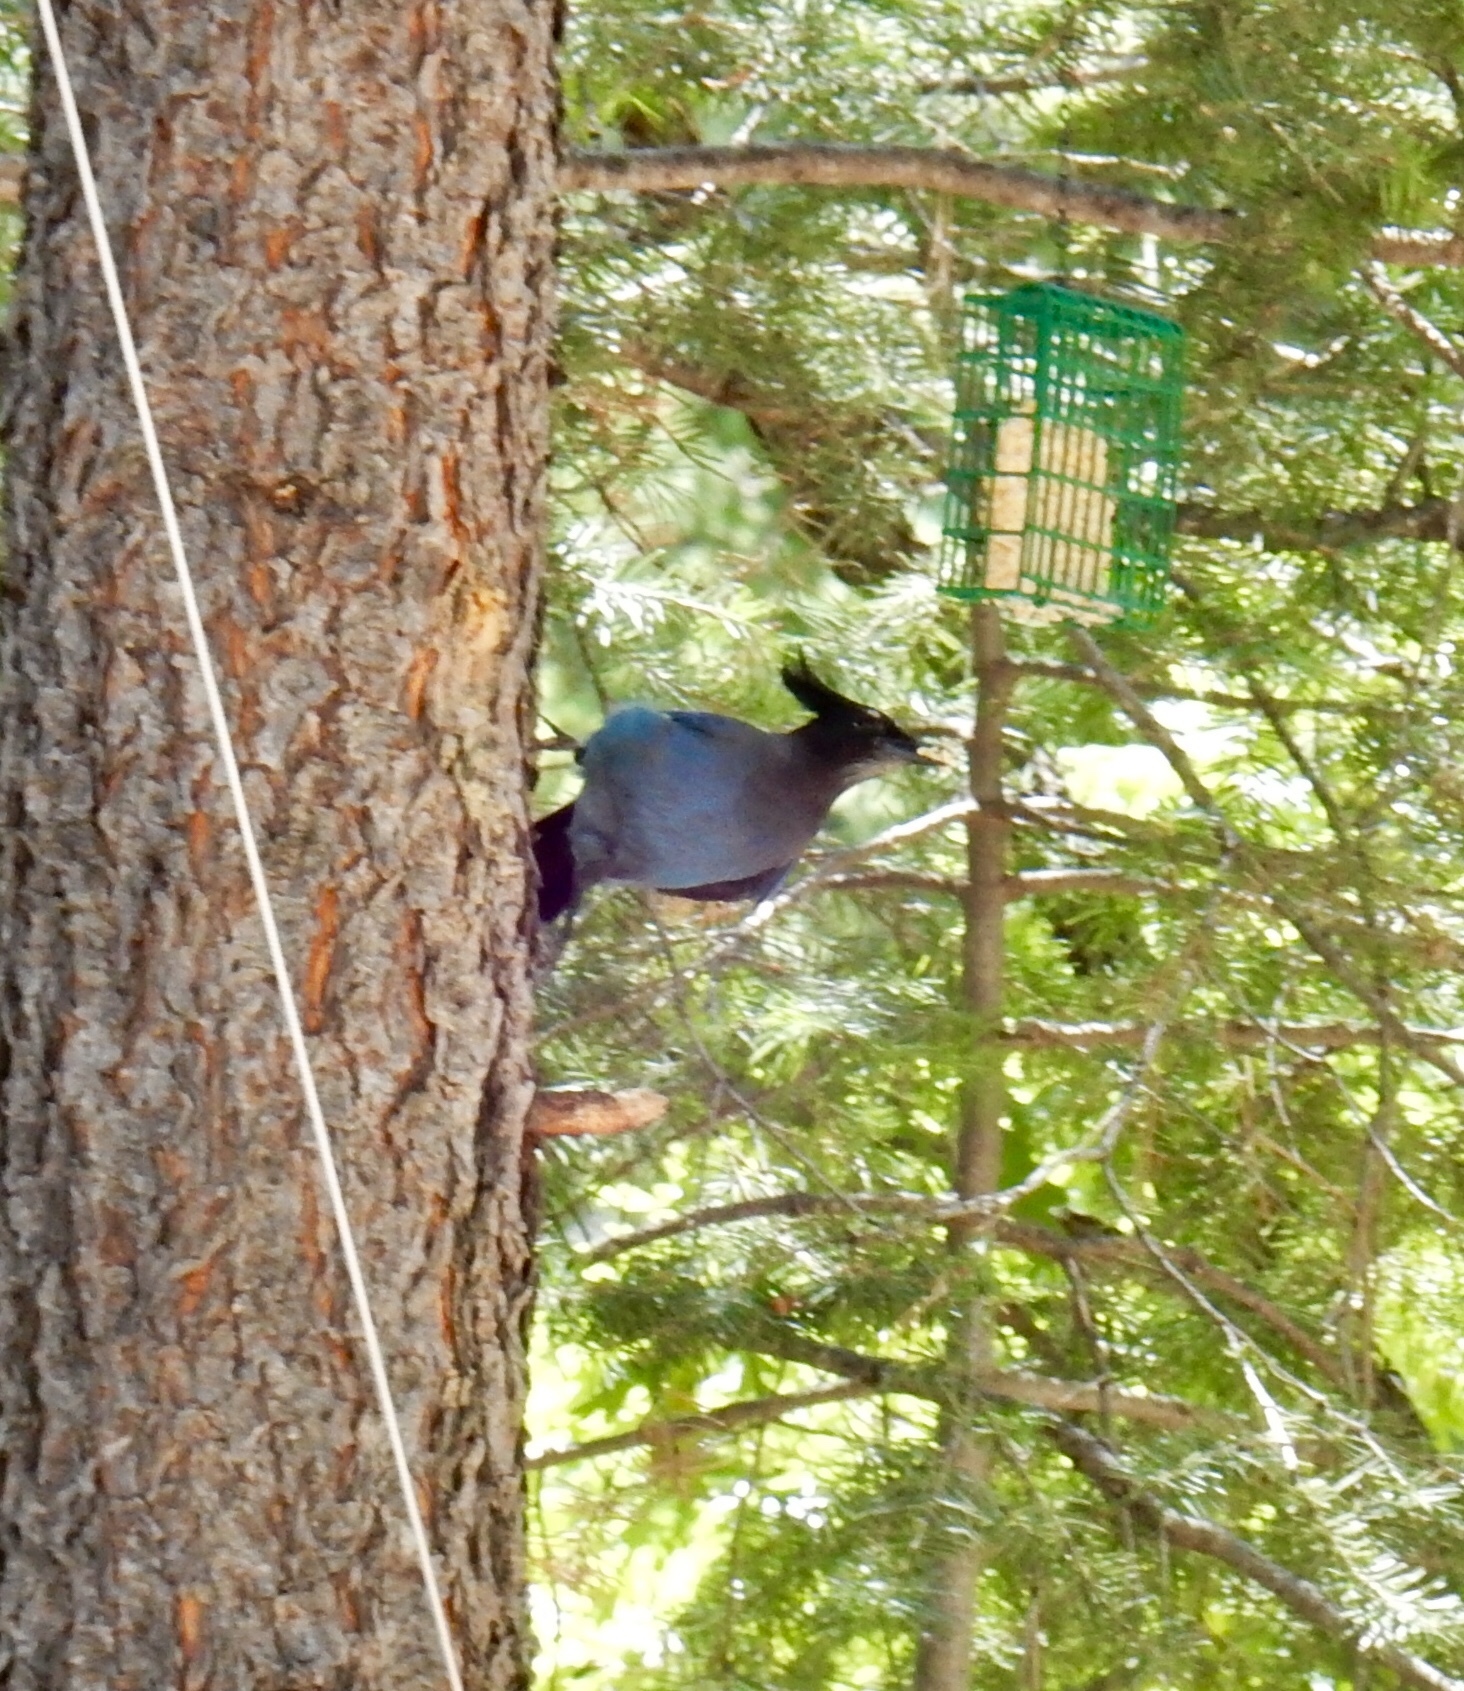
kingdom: Animalia
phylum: Chordata
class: Aves
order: Passeriformes
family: Corvidae
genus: Cyanocitta
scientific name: Cyanocitta stelleri
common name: Steller's jay
